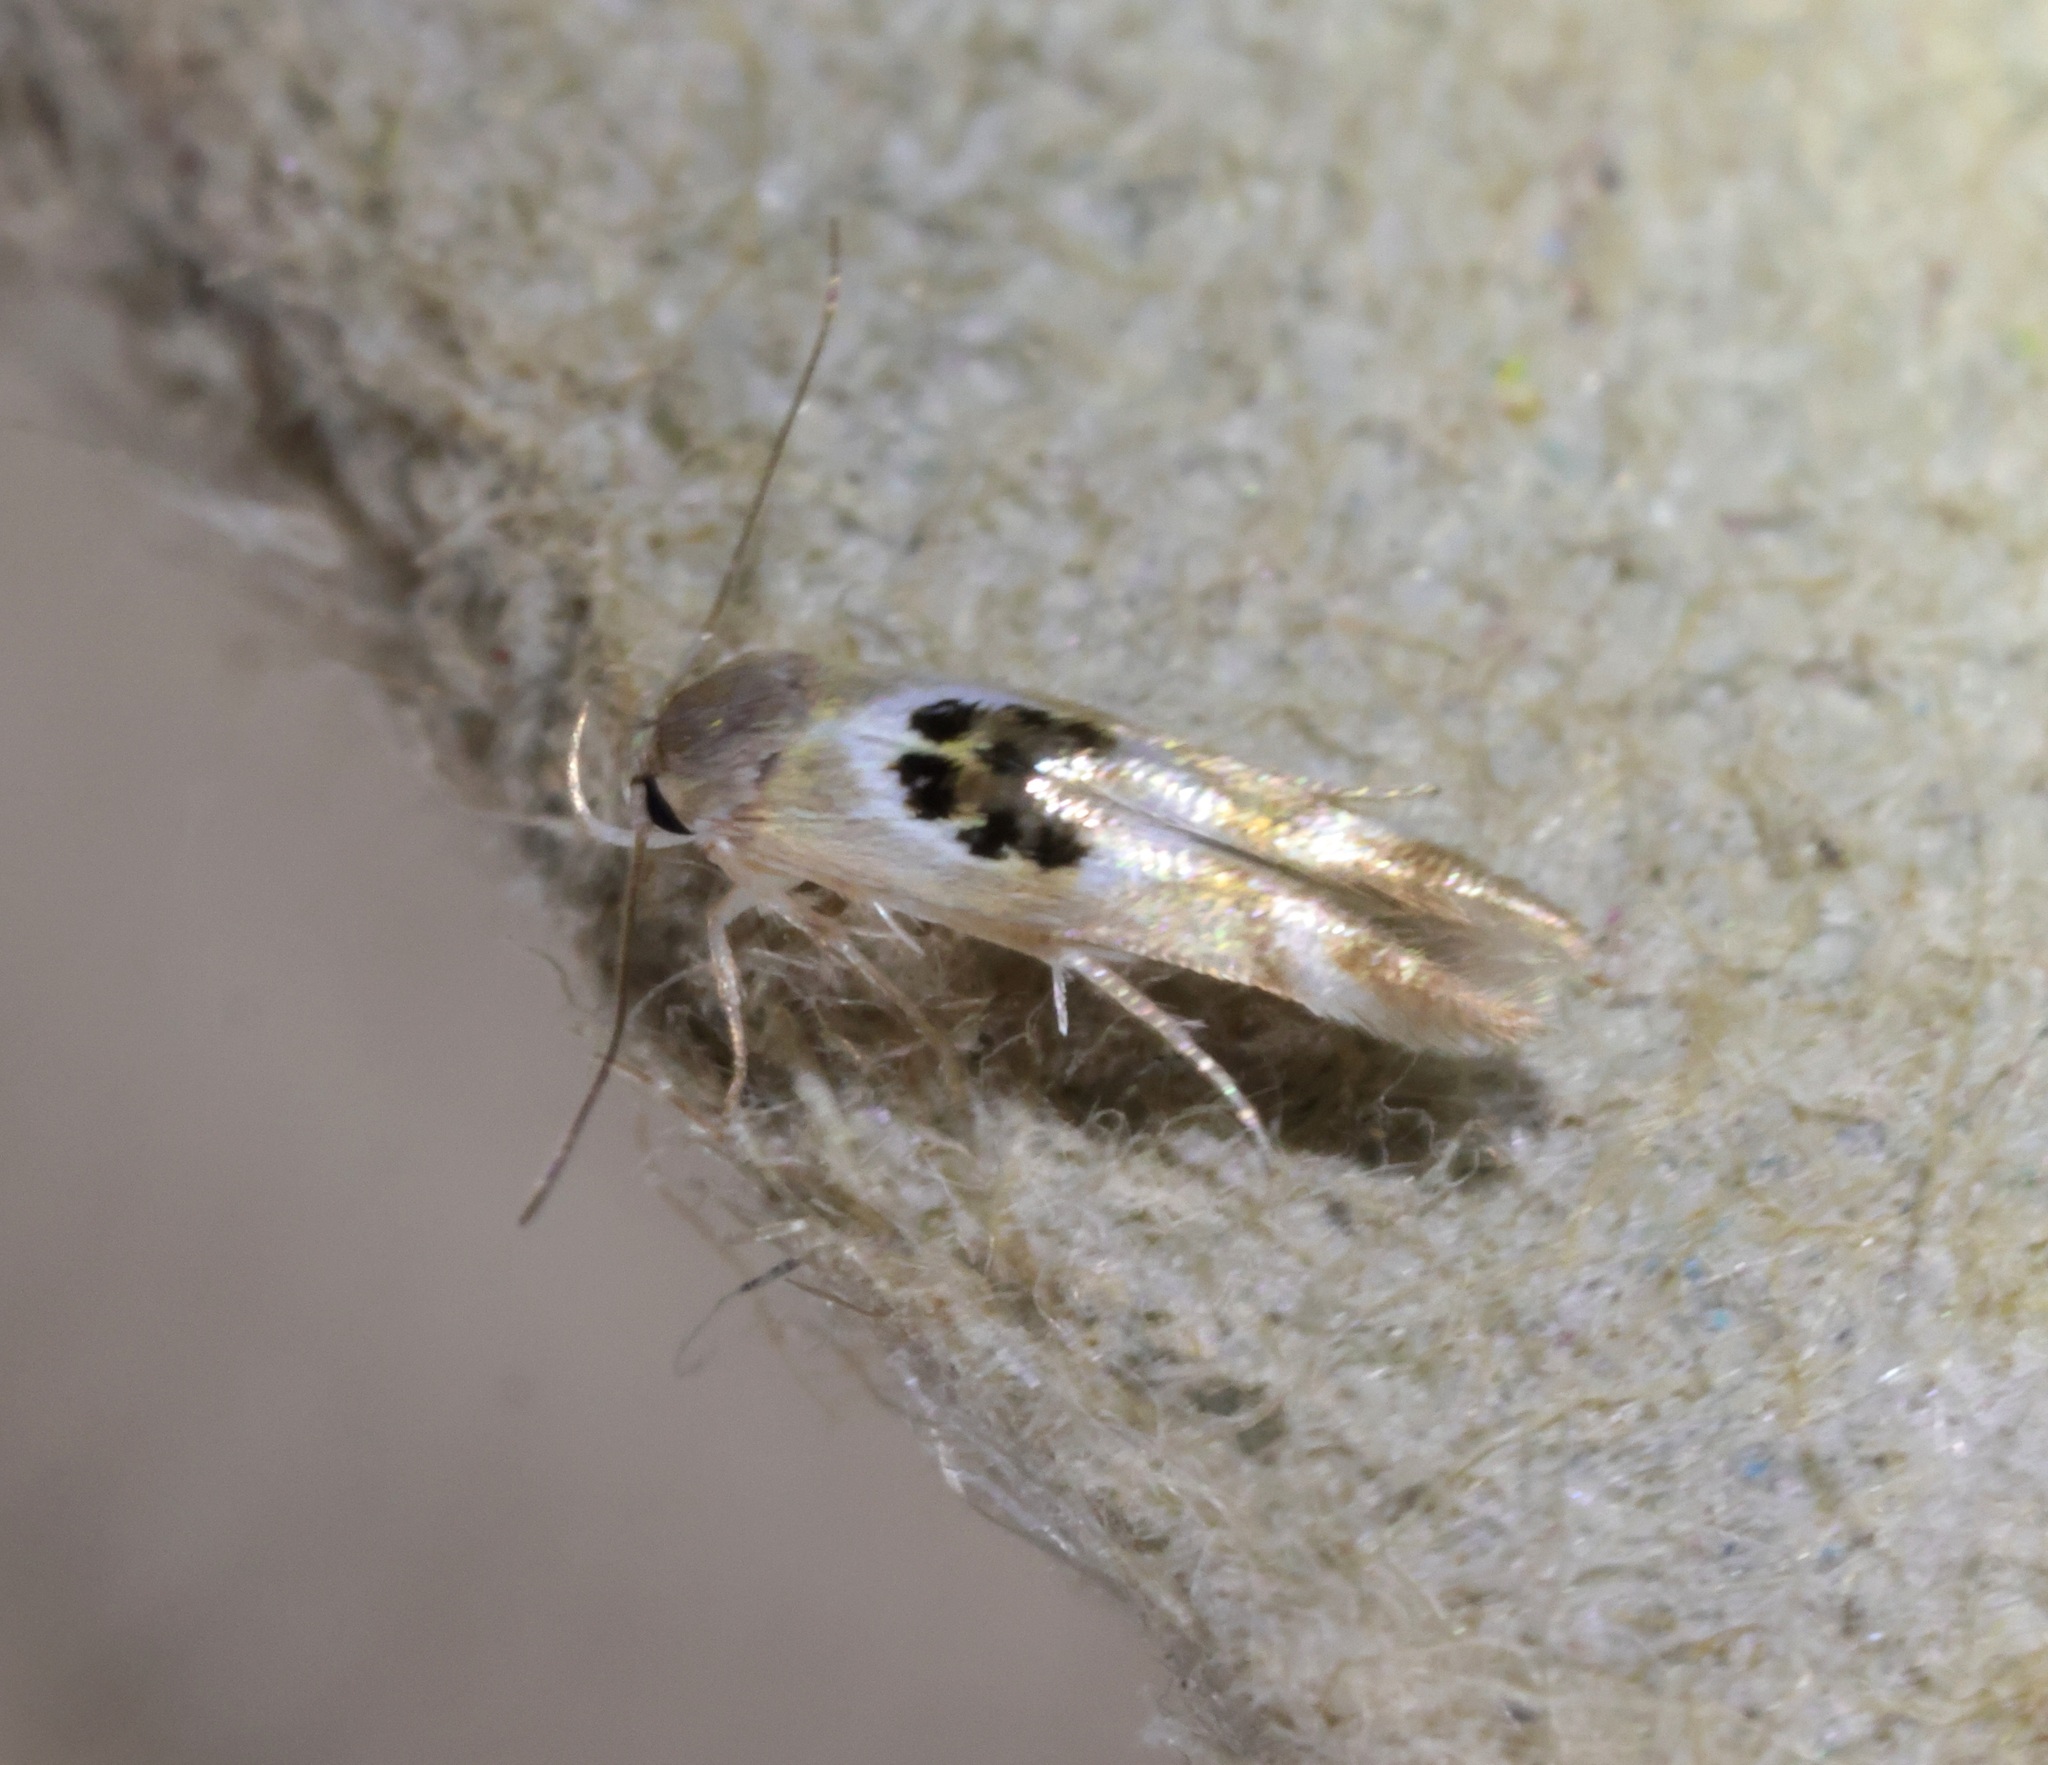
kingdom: Animalia
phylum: Arthropoda
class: Insecta
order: Lepidoptera
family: Stathmopodidae
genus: Hieromantis
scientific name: Hieromantis arcuata
